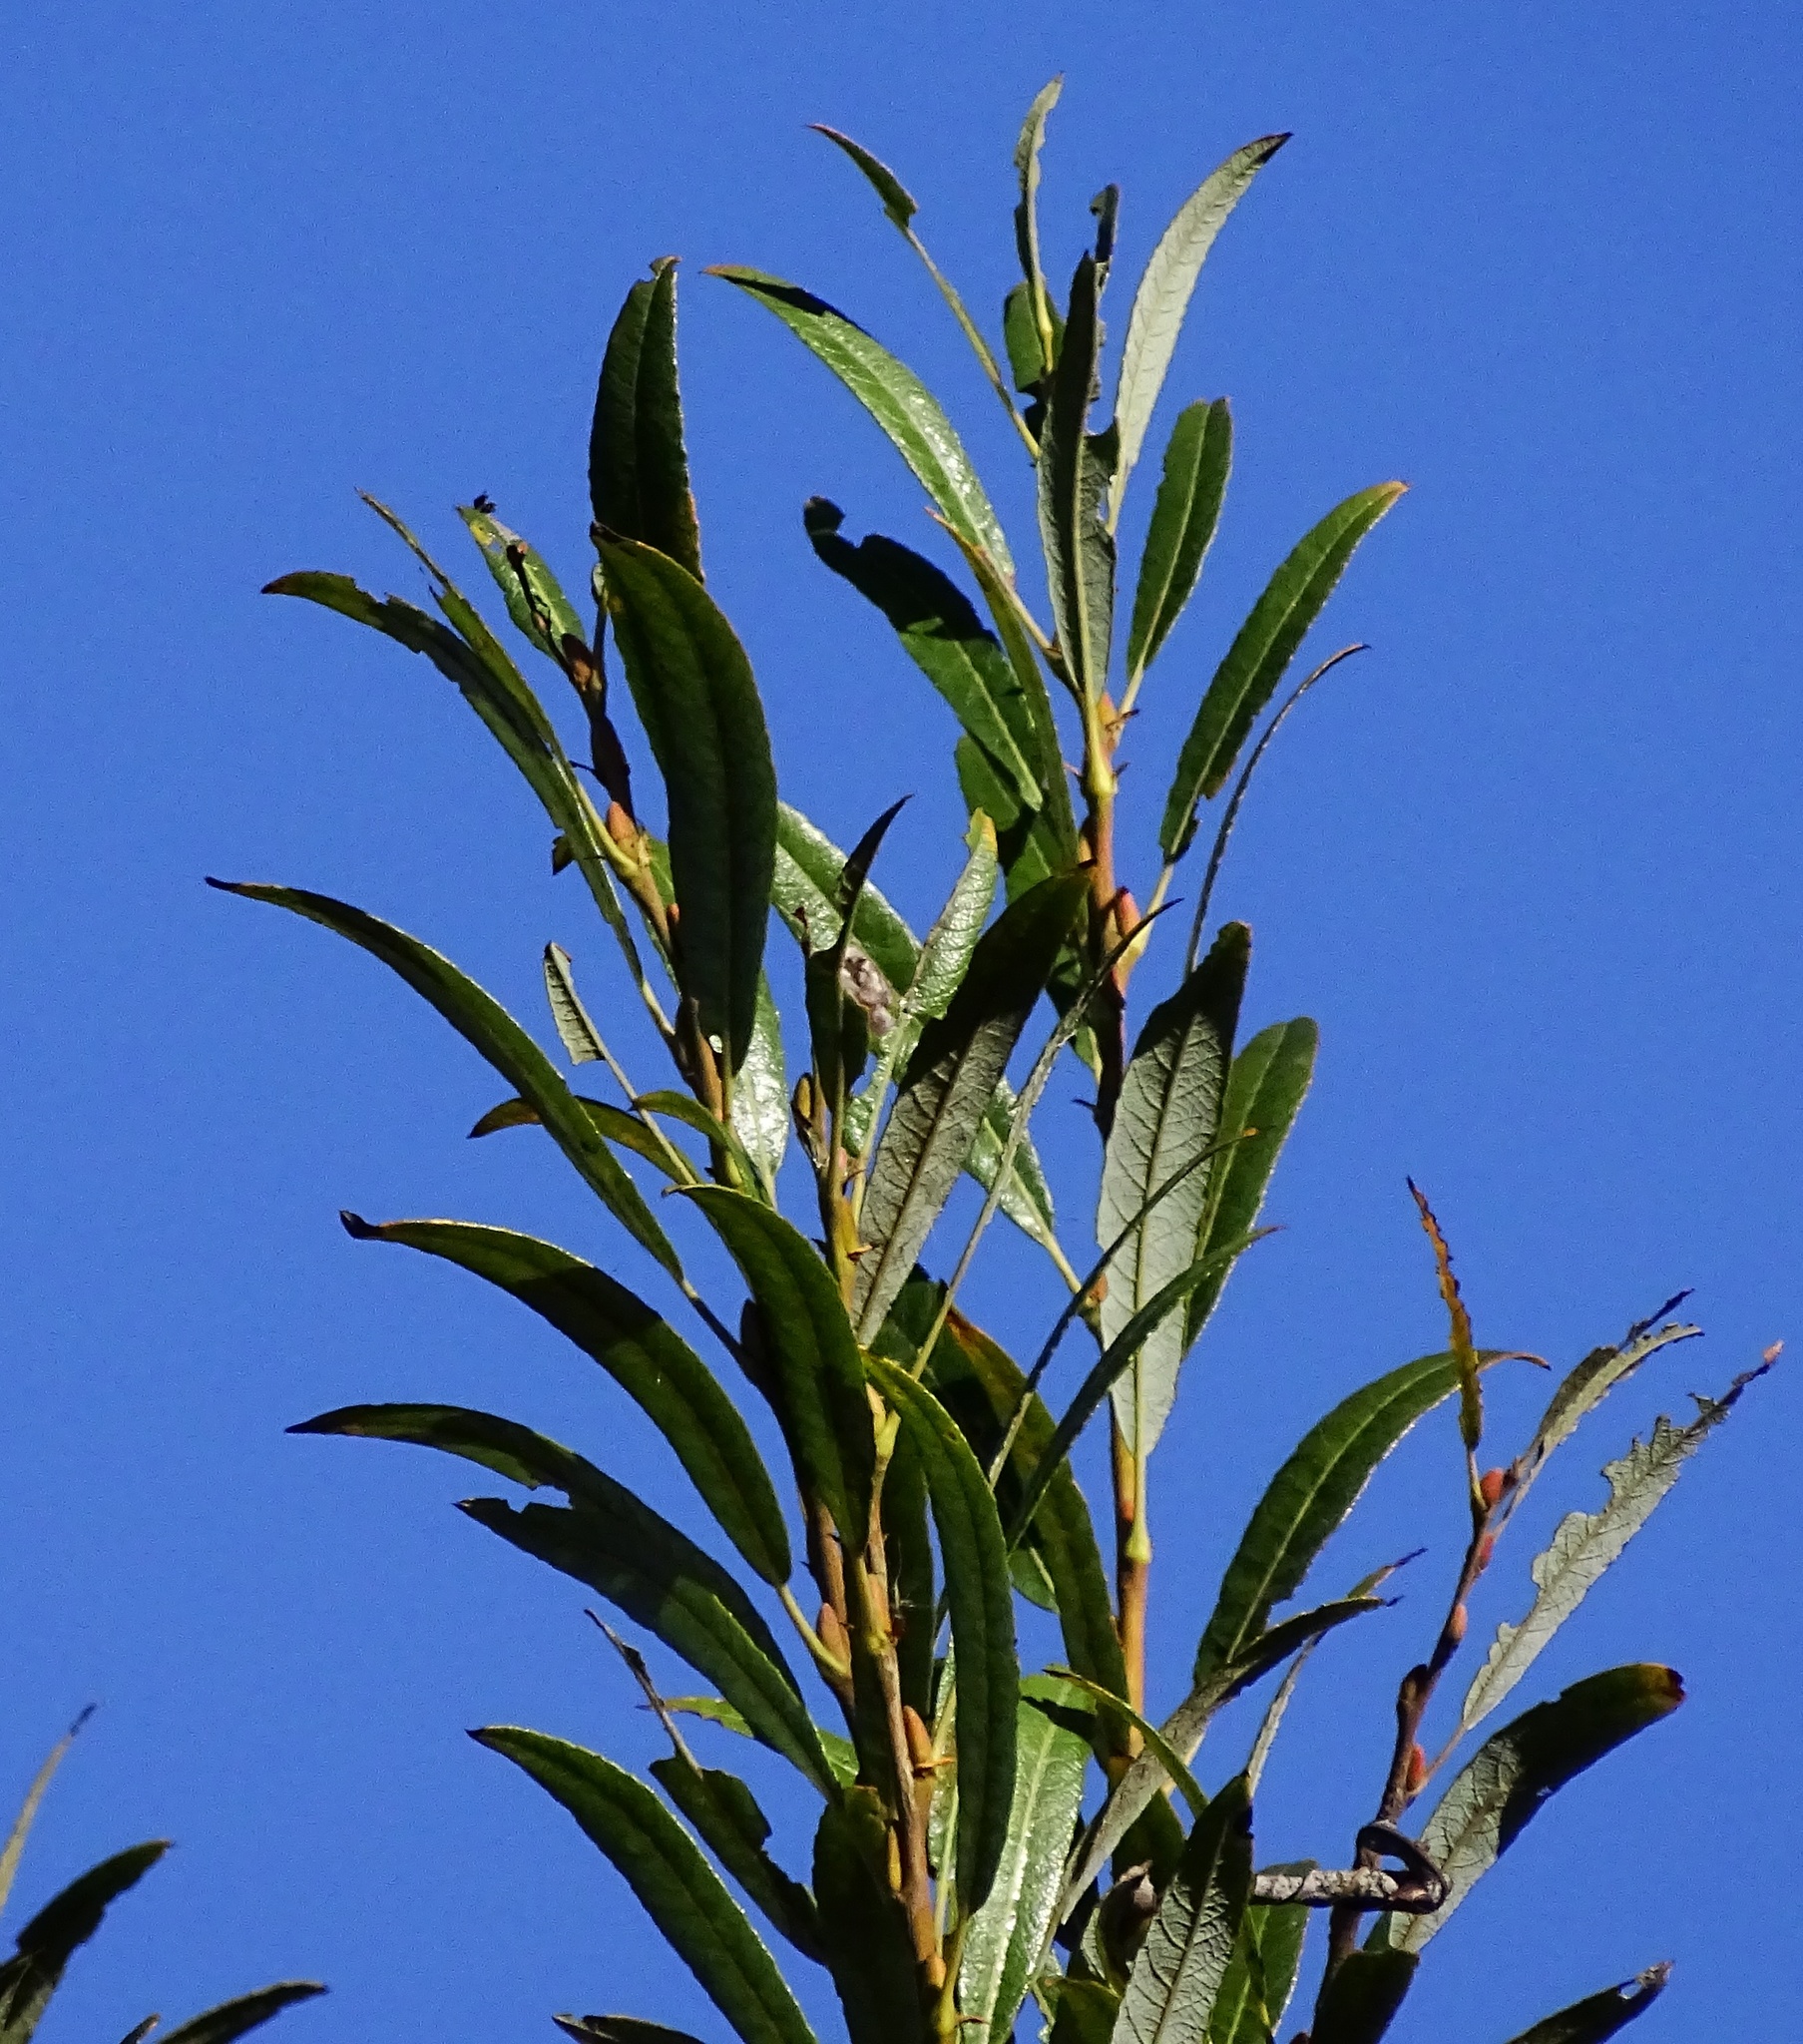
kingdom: Plantae
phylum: Tracheophyta
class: Magnoliopsida
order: Malpighiales
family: Salicaceae
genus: Salix
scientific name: Salix lasiolepis
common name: Arroyo willow
